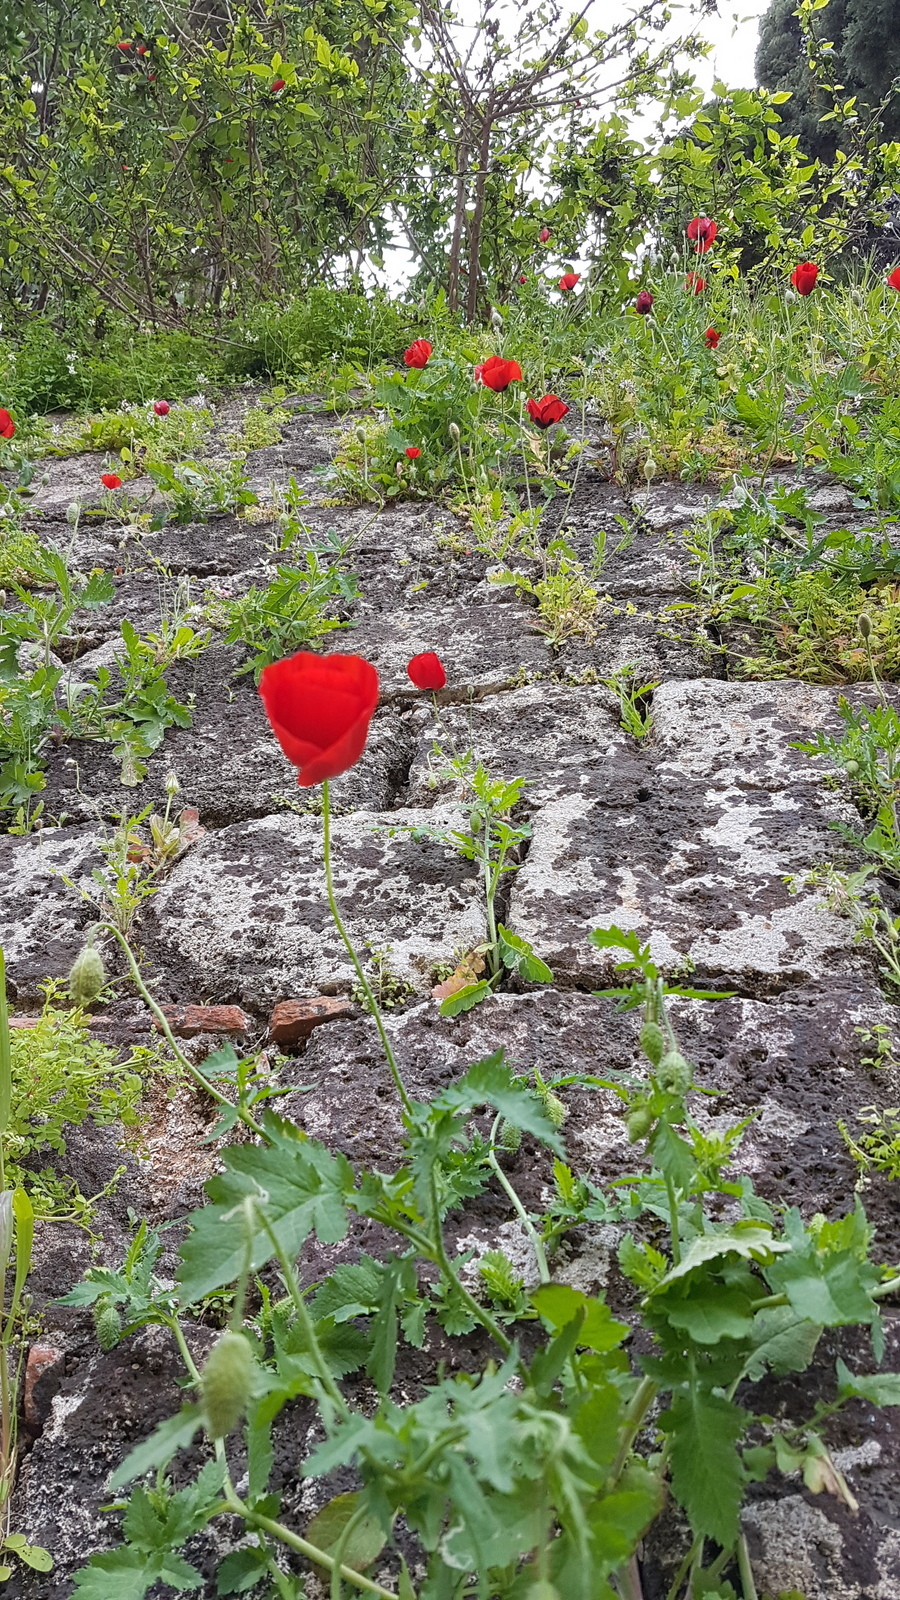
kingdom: Plantae
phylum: Tracheophyta
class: Magnoliopsida
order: Ranunculales
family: Papaveraceae
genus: Papaver
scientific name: Papaver rhoeas
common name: Corn poppy
